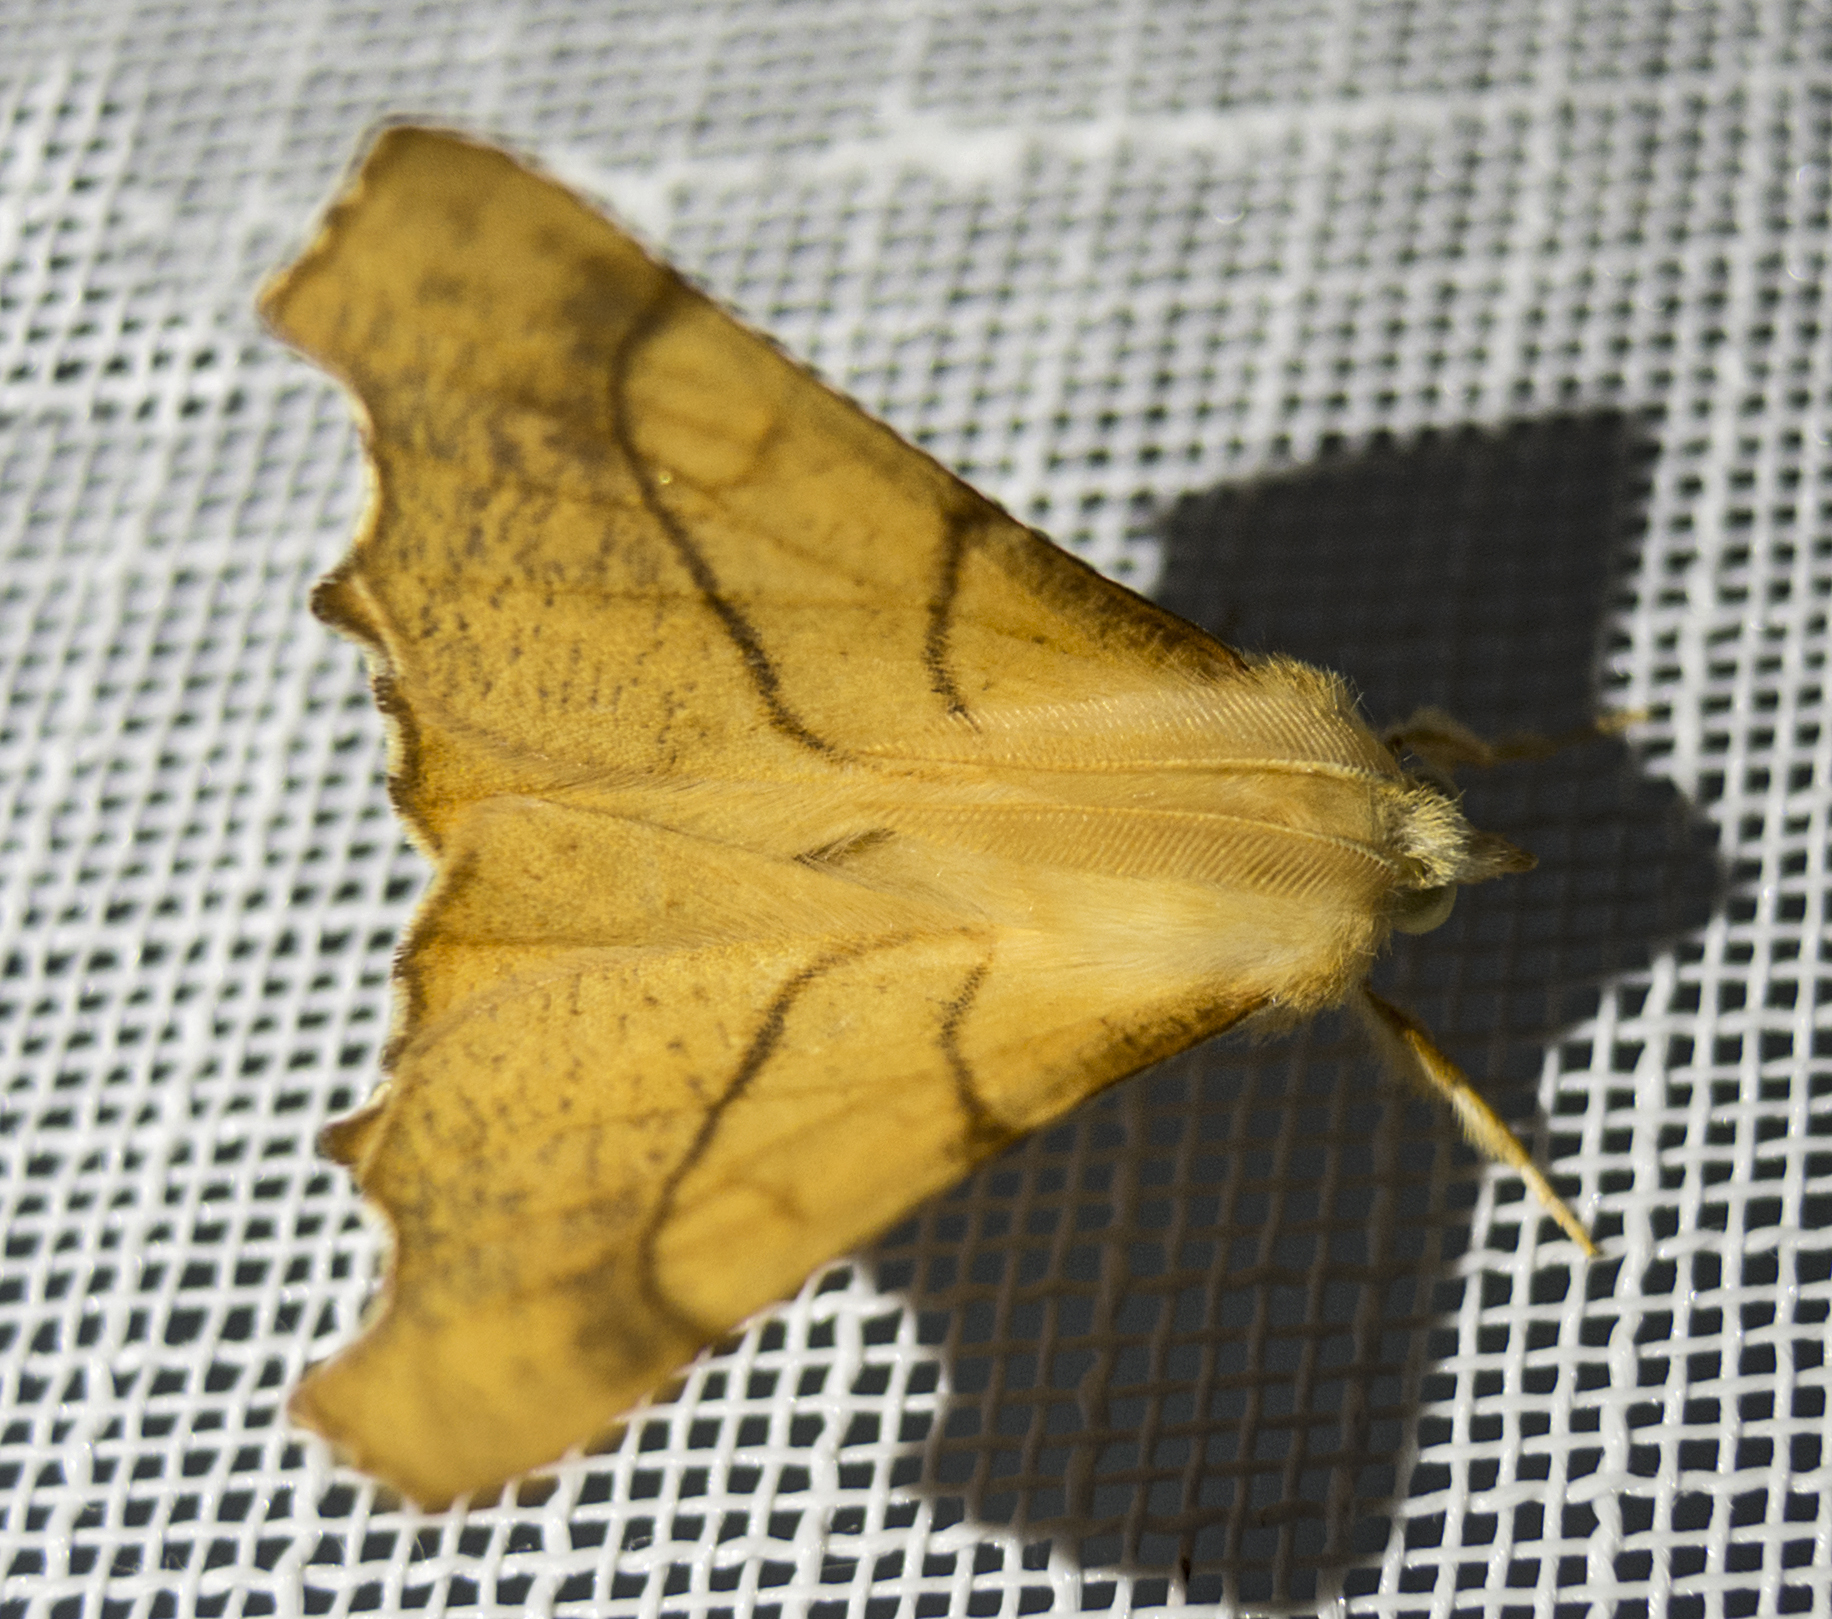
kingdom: Animalia
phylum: Arthropoda
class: Insecta
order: Lepidoptera
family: Geometridae
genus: Ennomos
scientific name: Ennomos fuscantaria
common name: Dusky thorn
